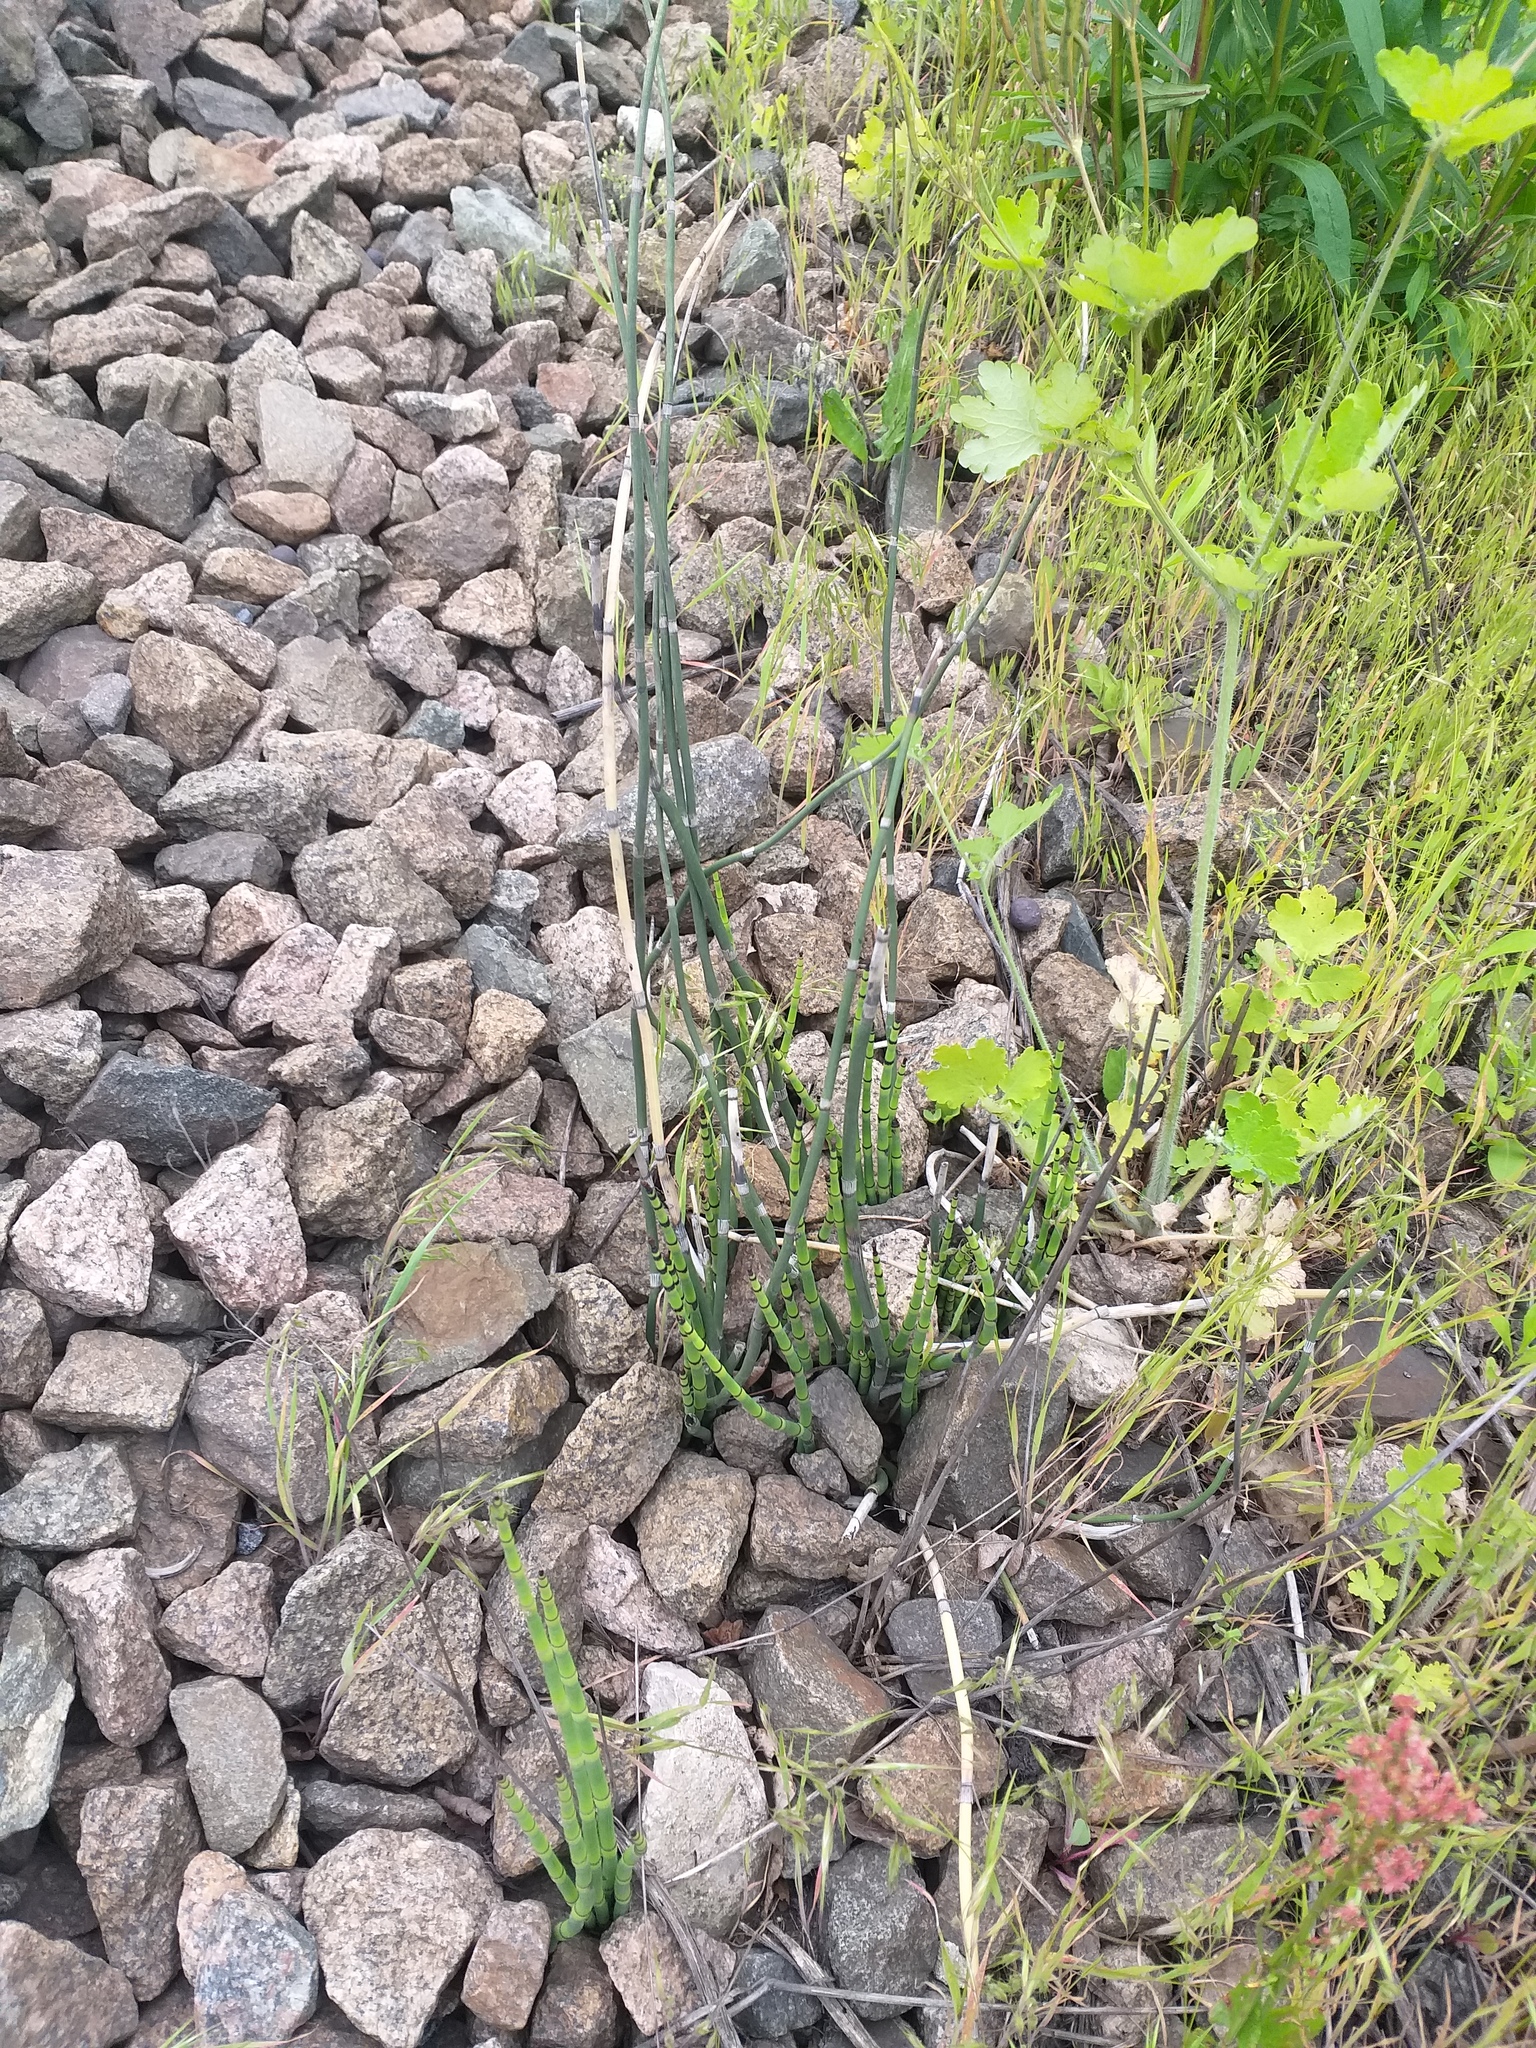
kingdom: Plantae
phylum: Tracheophyta
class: Polypodiopsida
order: Equisetales
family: Equisetaceae
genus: Equisetum
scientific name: Equisetum hyemale
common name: Rough horsetail
